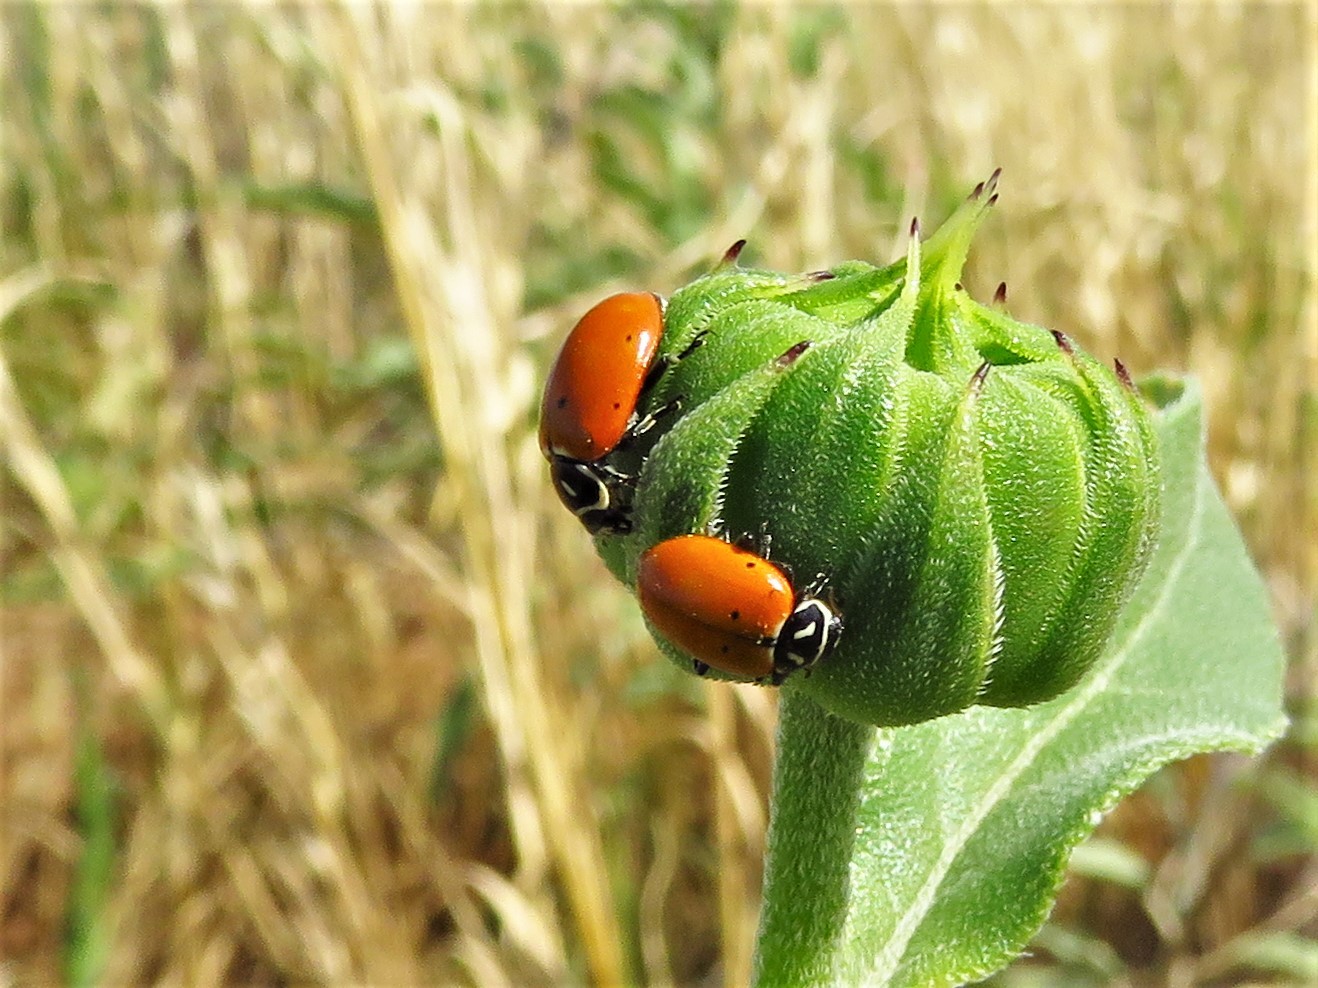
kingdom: Animalia
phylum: Arthropoda
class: Insecta
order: Coleoptera
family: Coccinellidae
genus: Hippodamia
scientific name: Hippodamia convergens
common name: Convergent lady beetle
